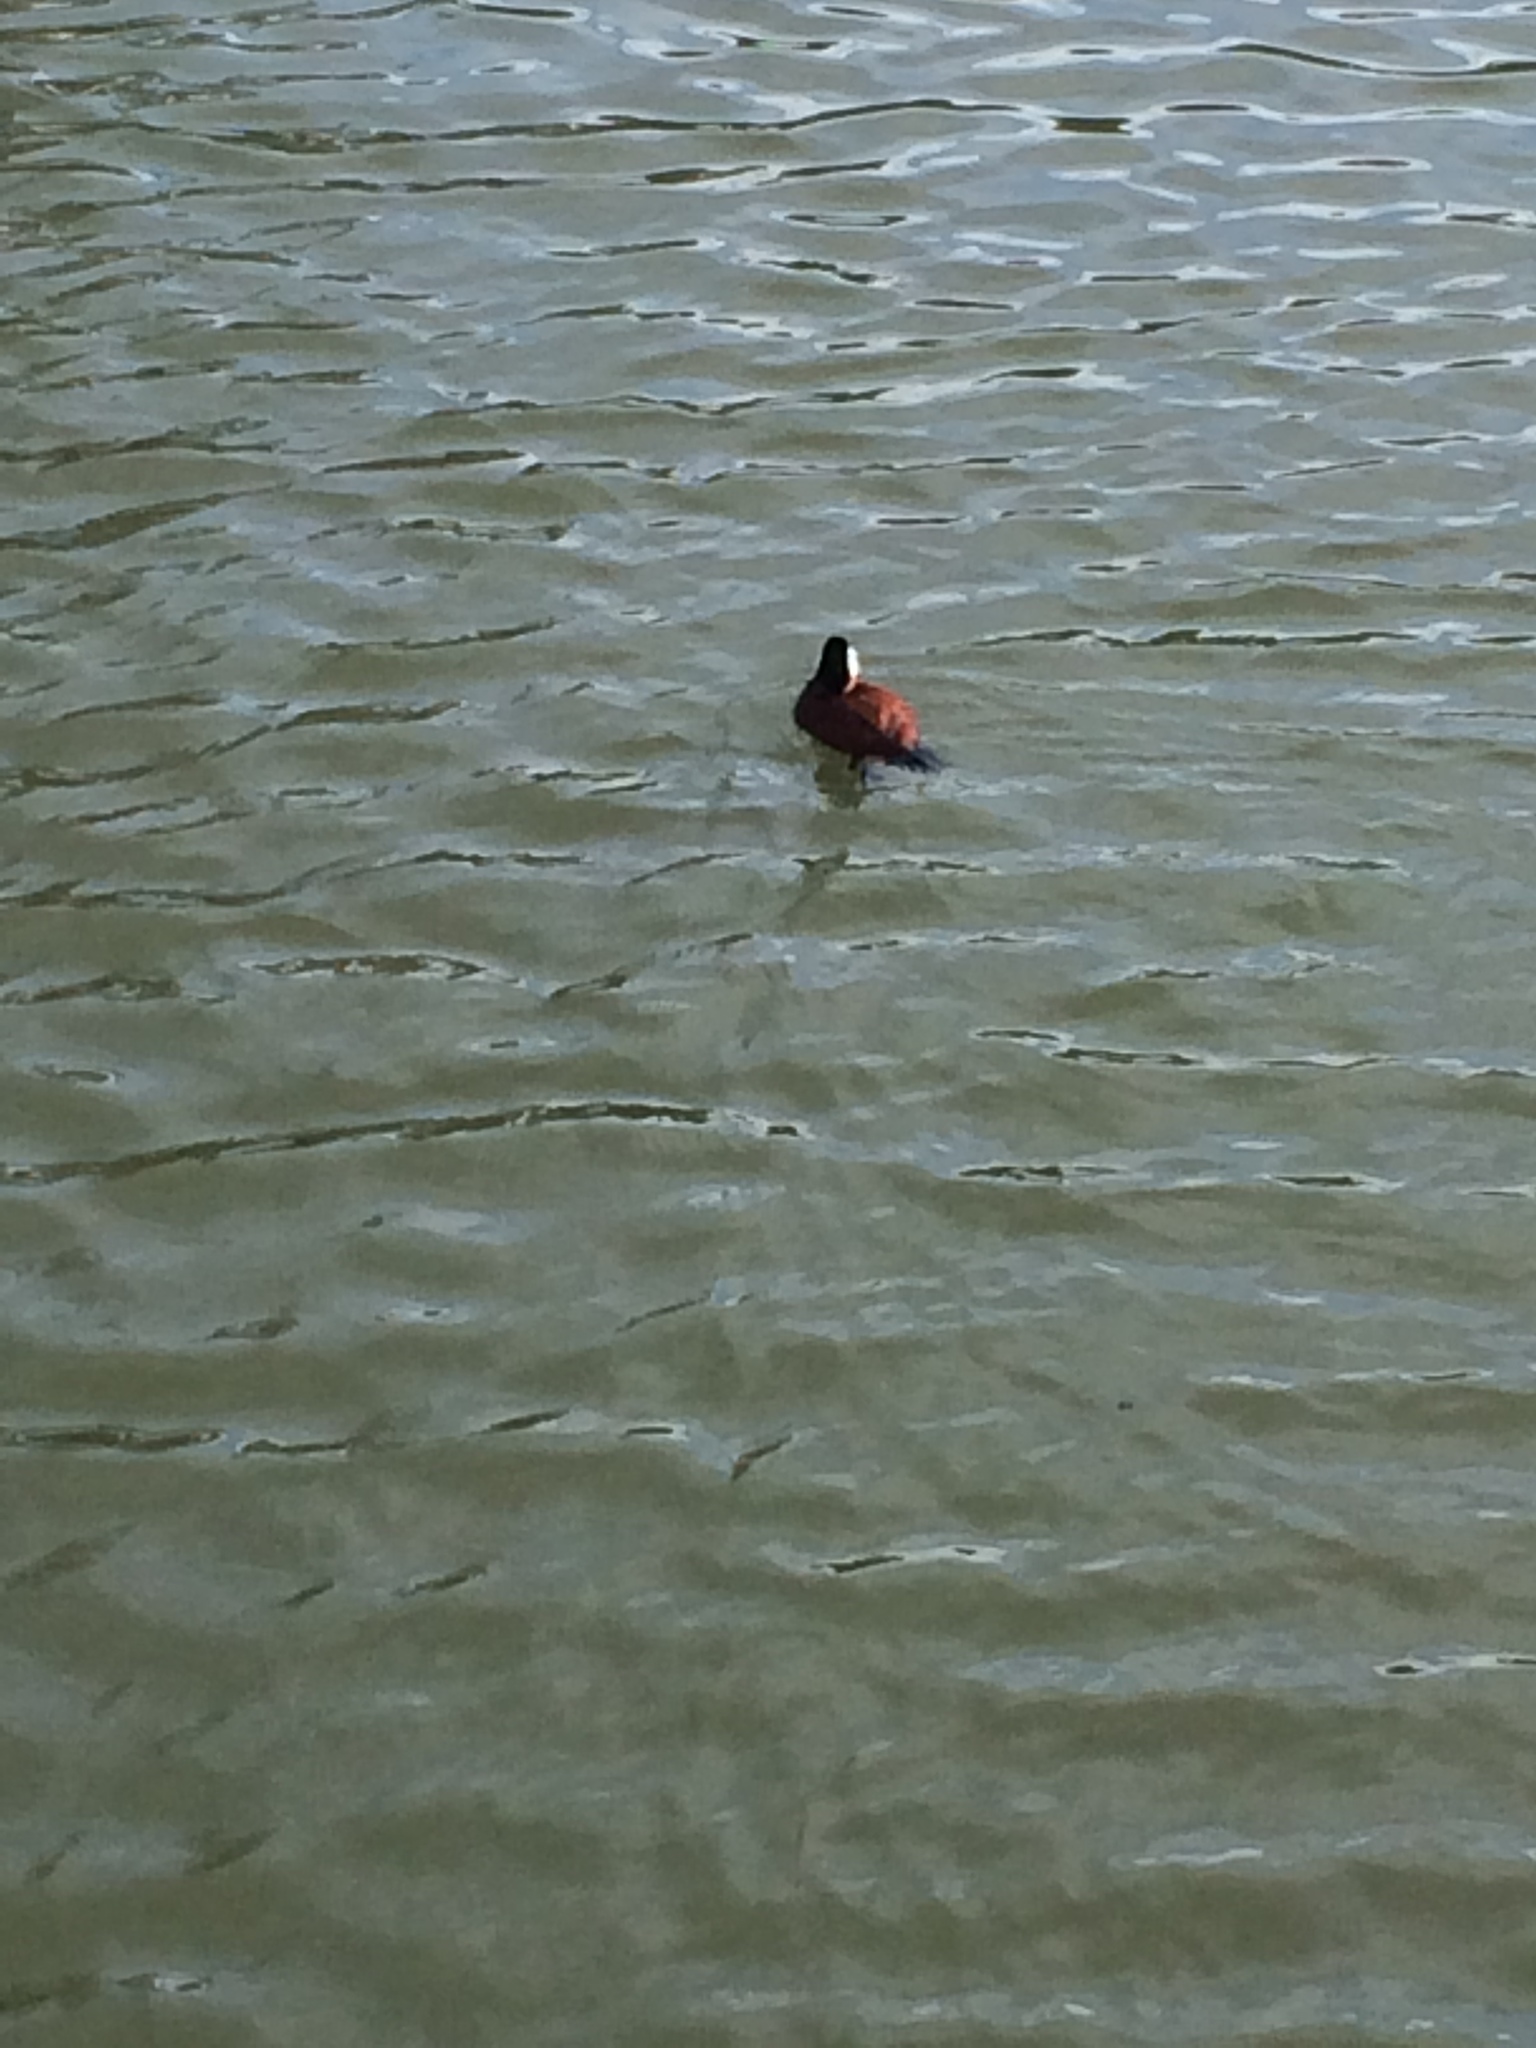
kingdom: Animalia
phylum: Chordata
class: Aves
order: Anseriformes
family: Anatidae
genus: Oxyura
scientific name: Oxyura jamaicensis
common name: Ruddy duck
